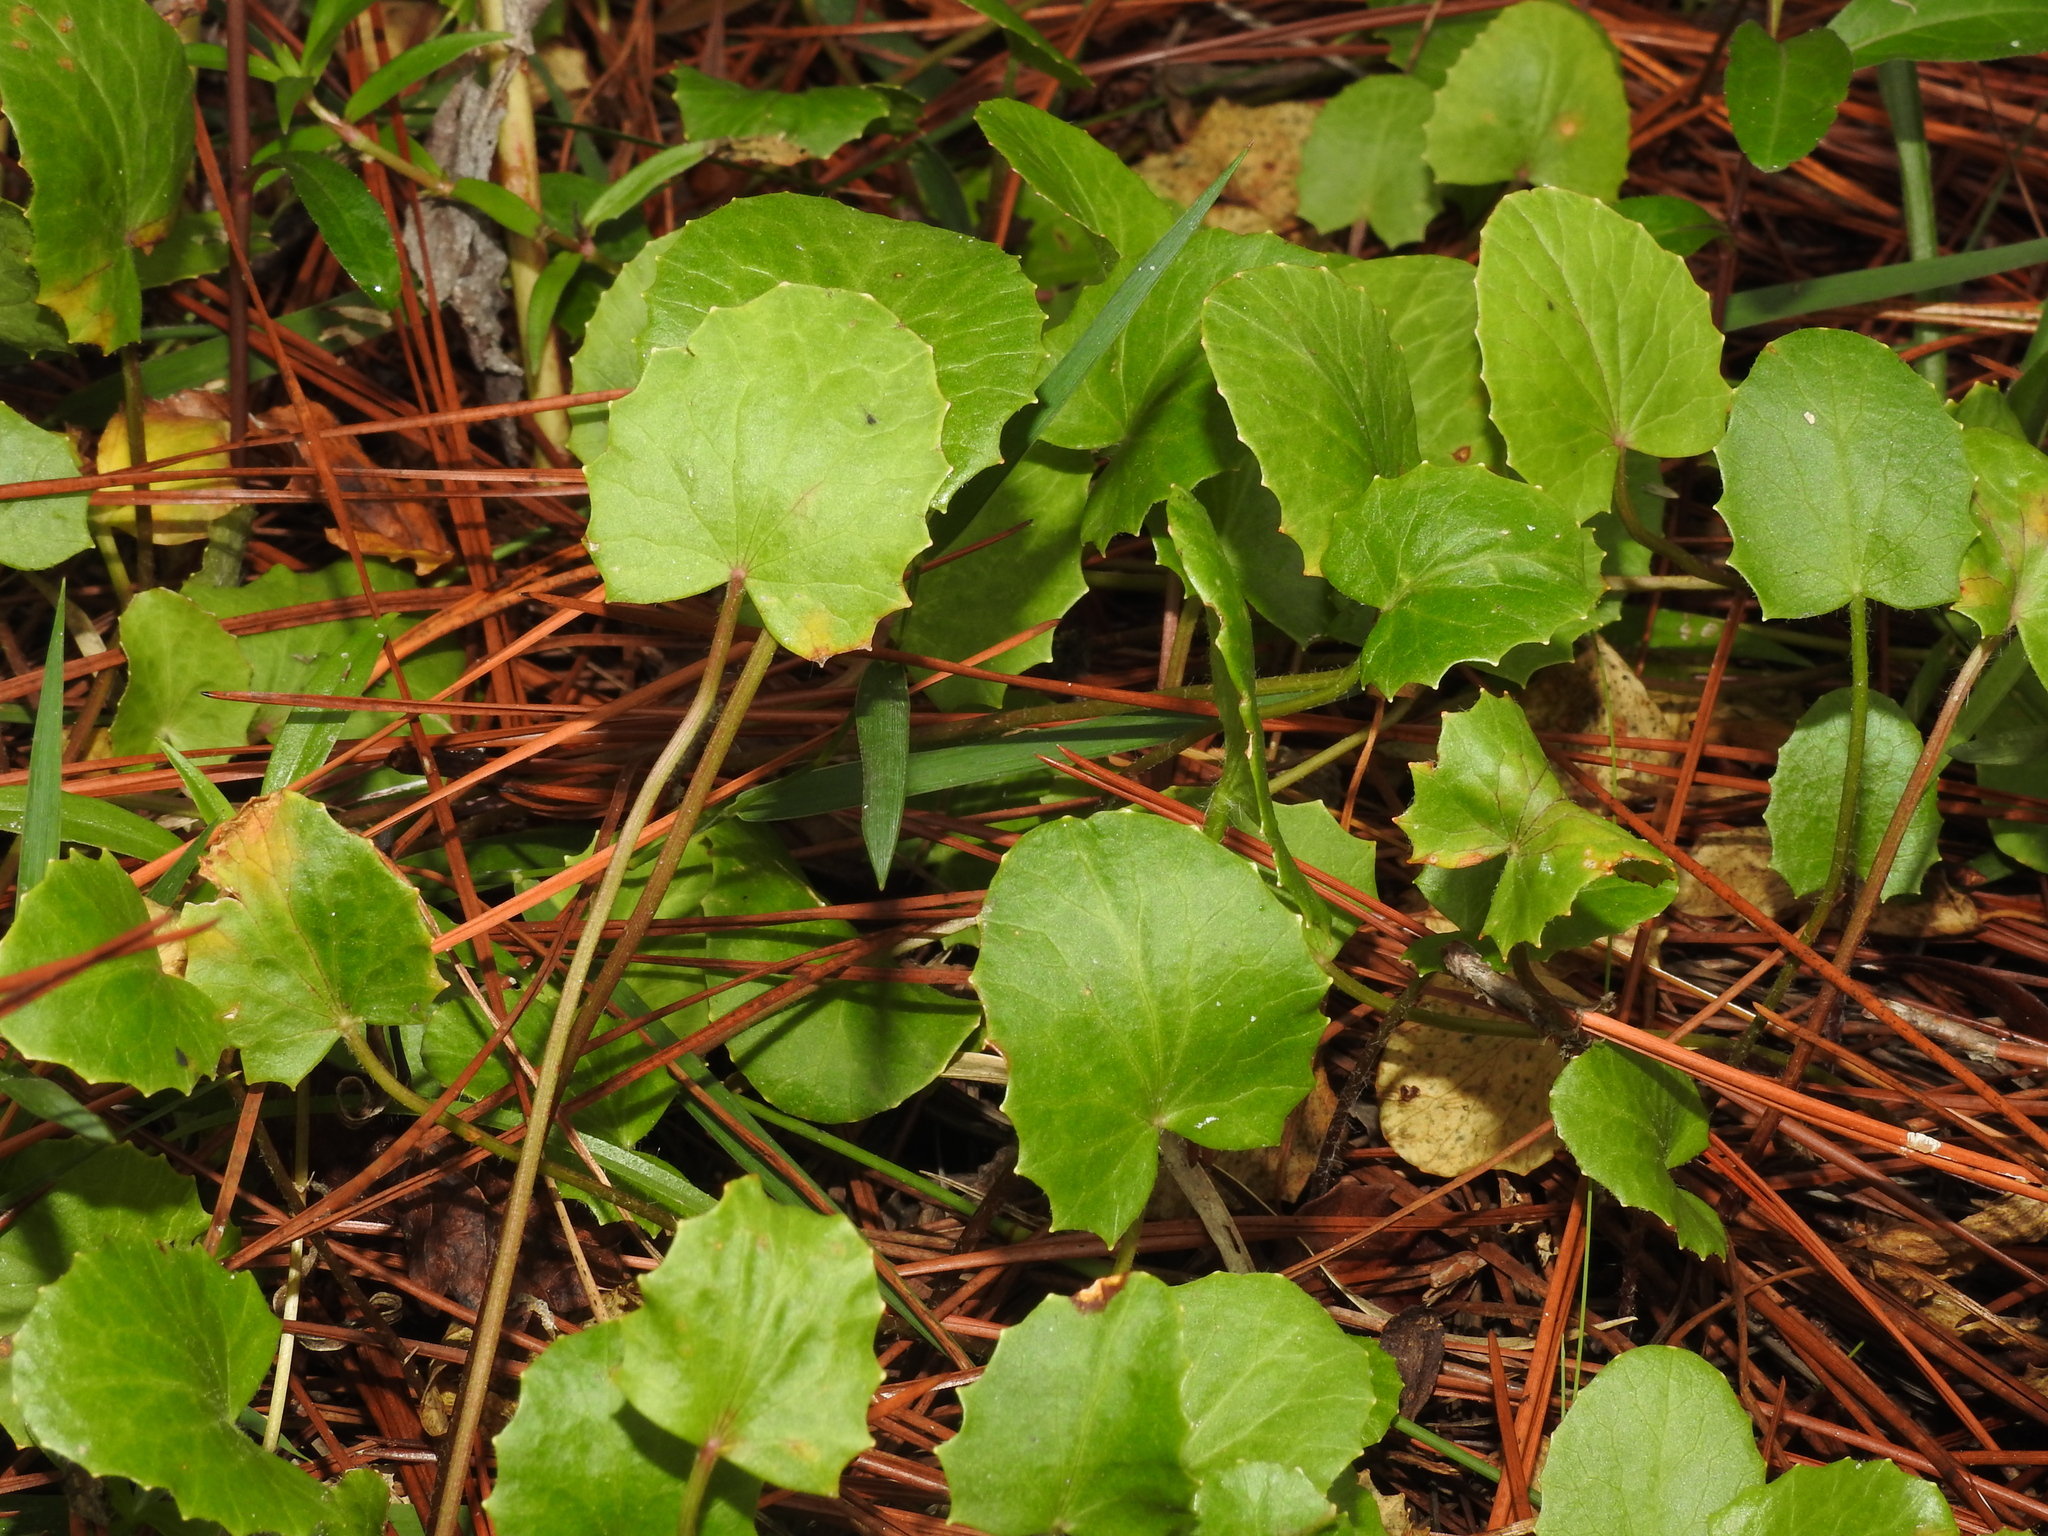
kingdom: Plantae
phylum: Tracheophyta
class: Magnoliopsida
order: Apiales
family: Apiaceae
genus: Centella
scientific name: Centella erecta
